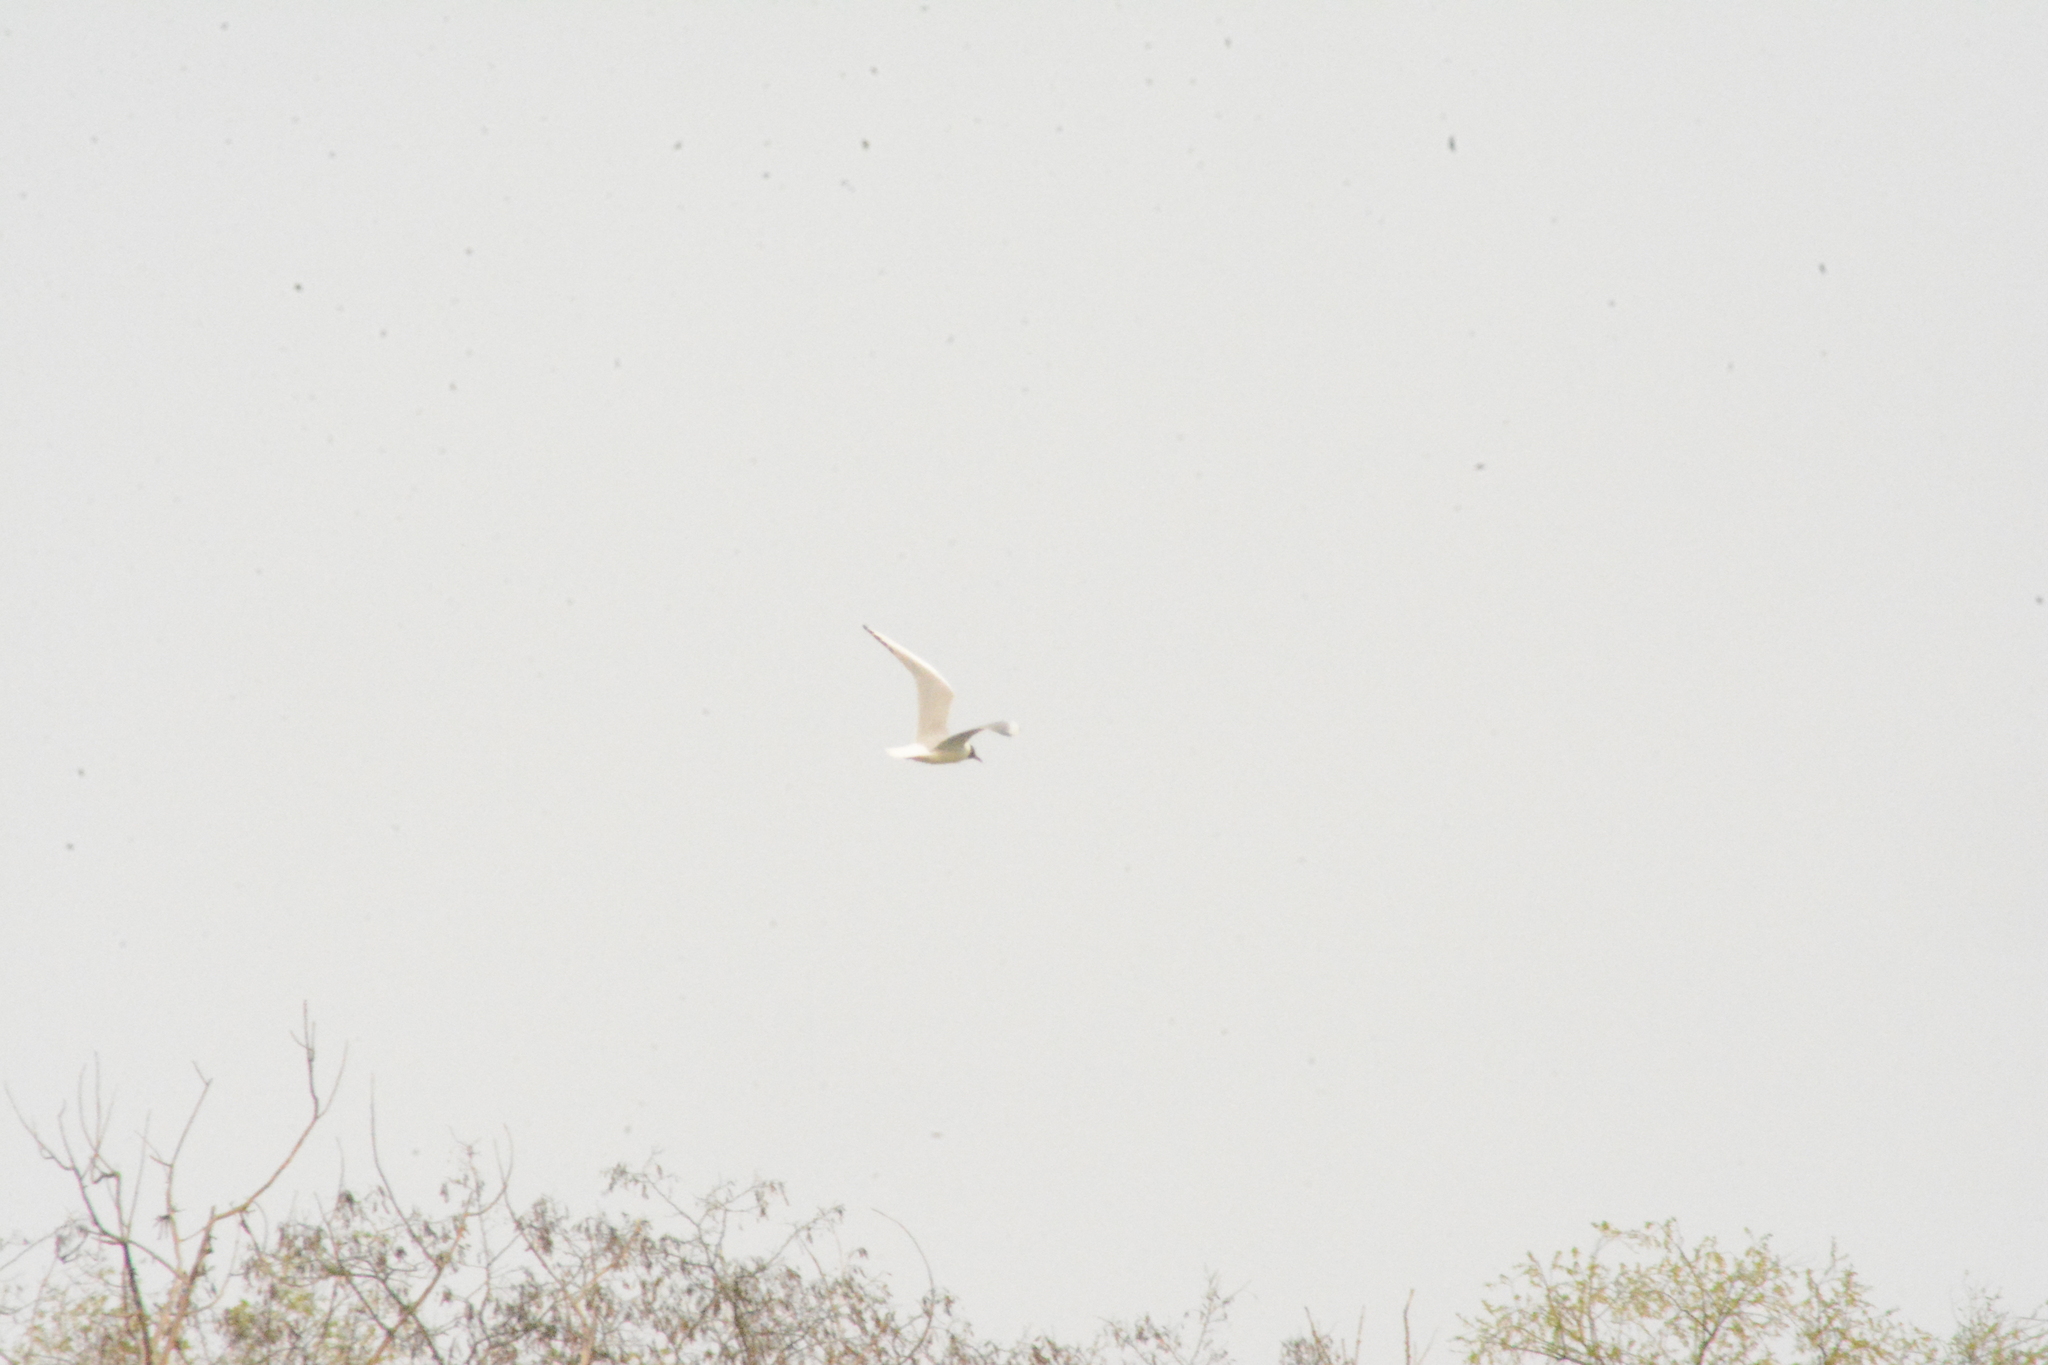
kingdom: Animalia
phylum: Chordata
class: Aves
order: Charadriiformes
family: Laridae
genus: Chroicocephalus
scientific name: Chroicocephalus ridibundus
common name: Black-headed gull
